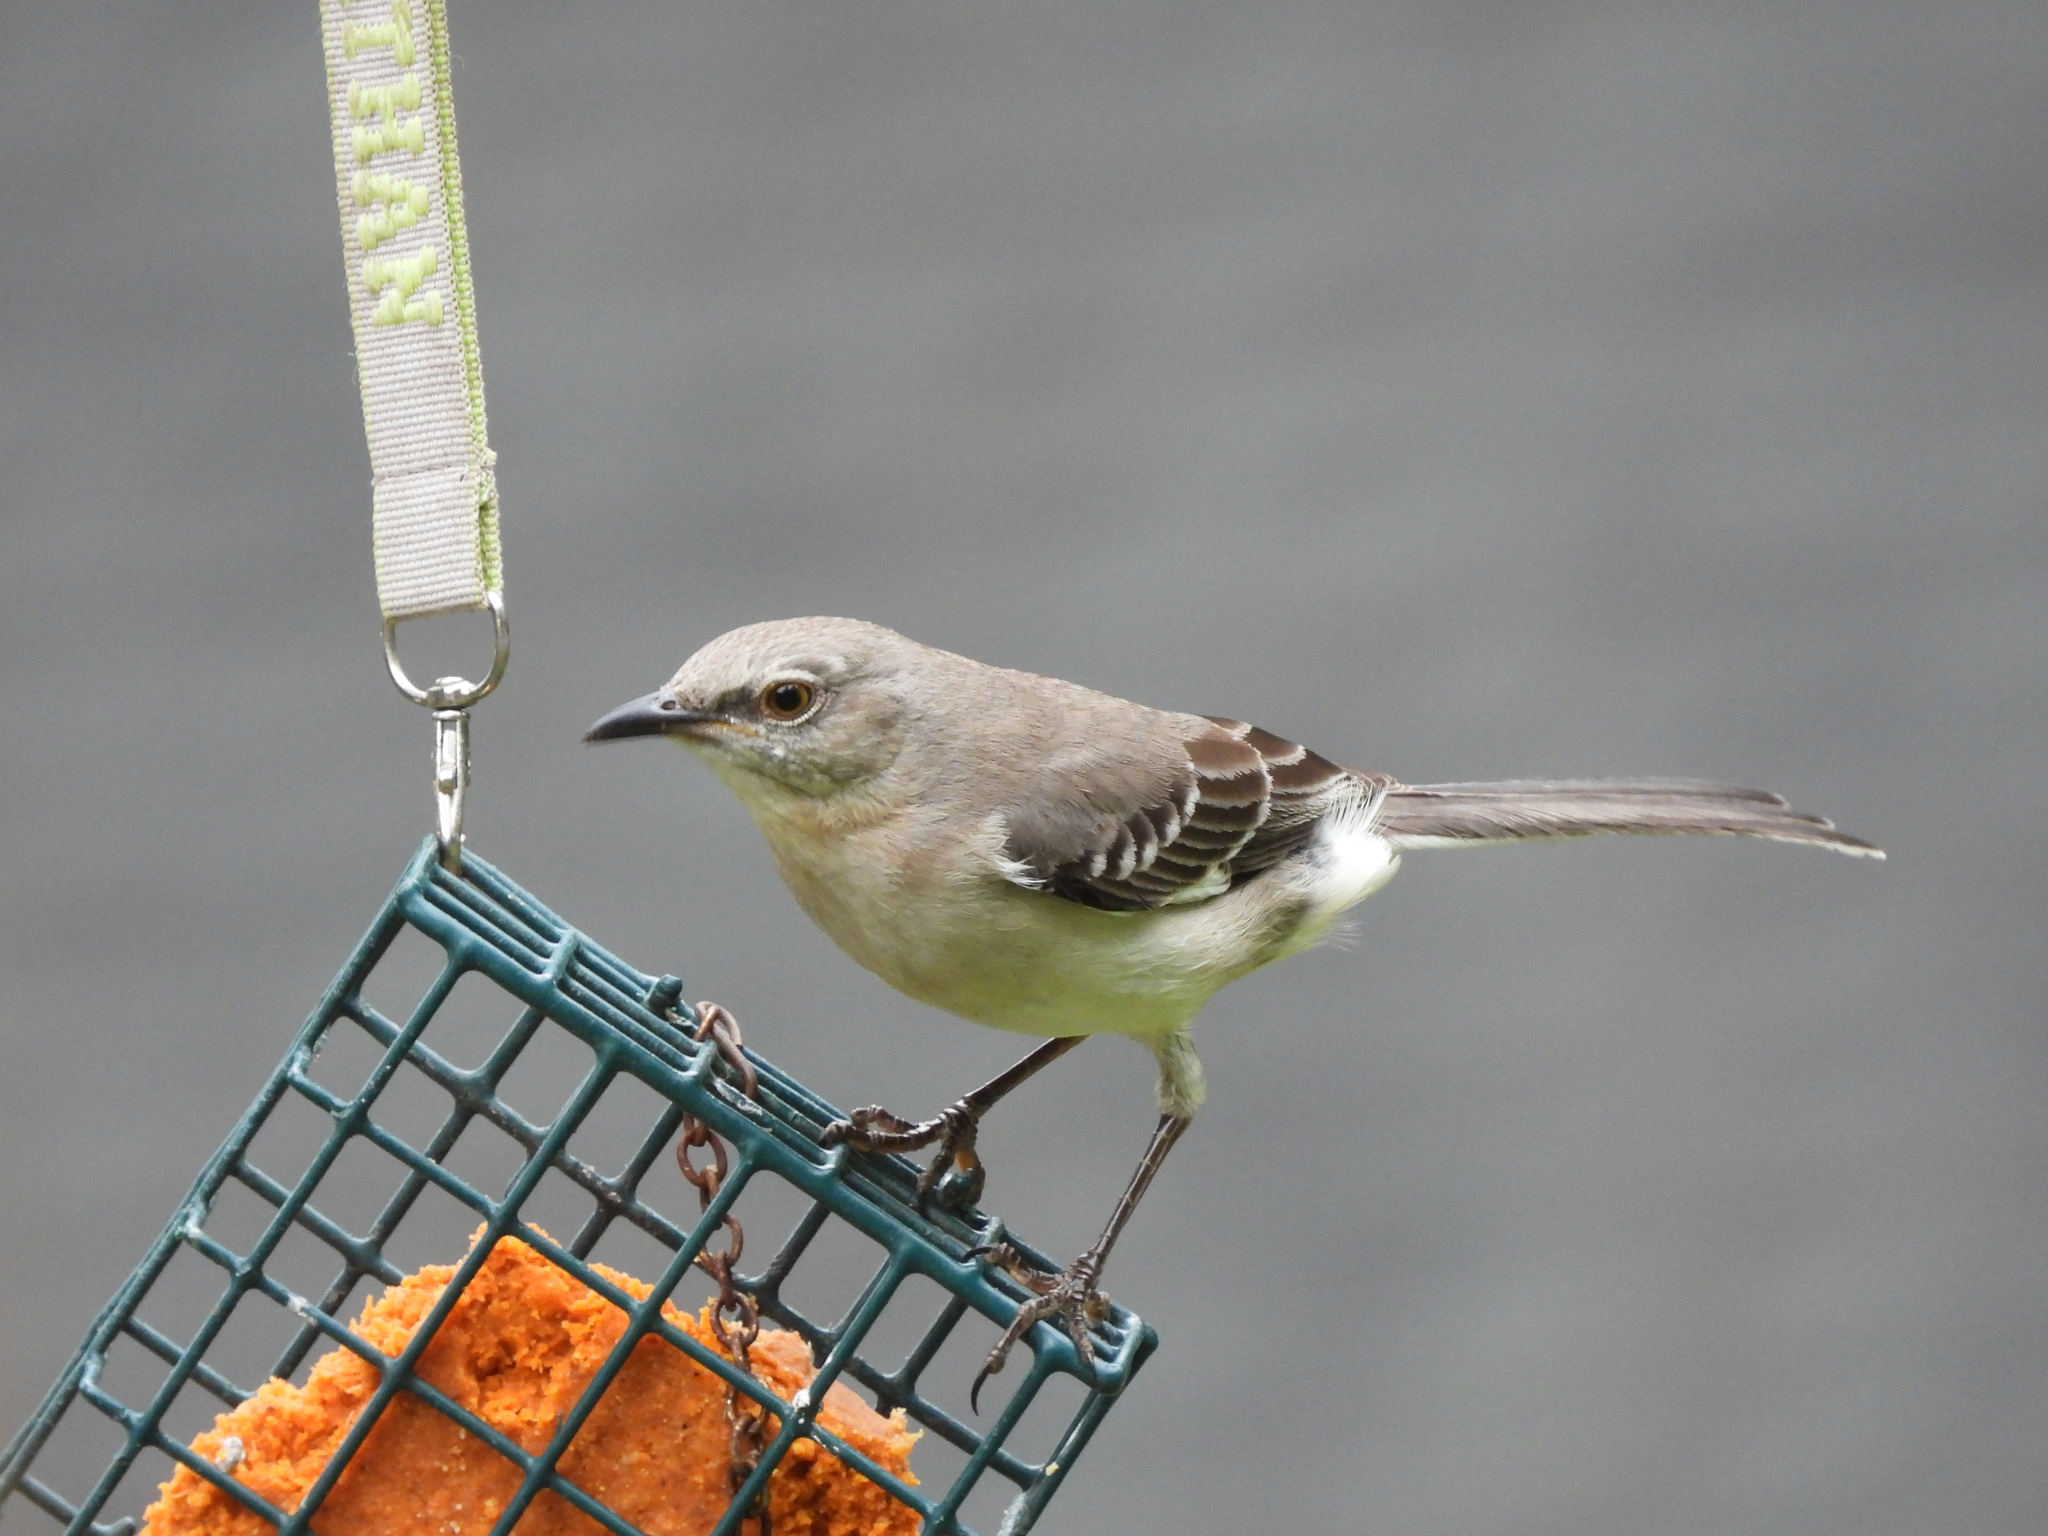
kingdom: Animalia
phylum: Chordata
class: Aves
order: Passeriformes
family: Mimidae
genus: Mimus
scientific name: Mimus polyglottos
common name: Northern mockingbird
